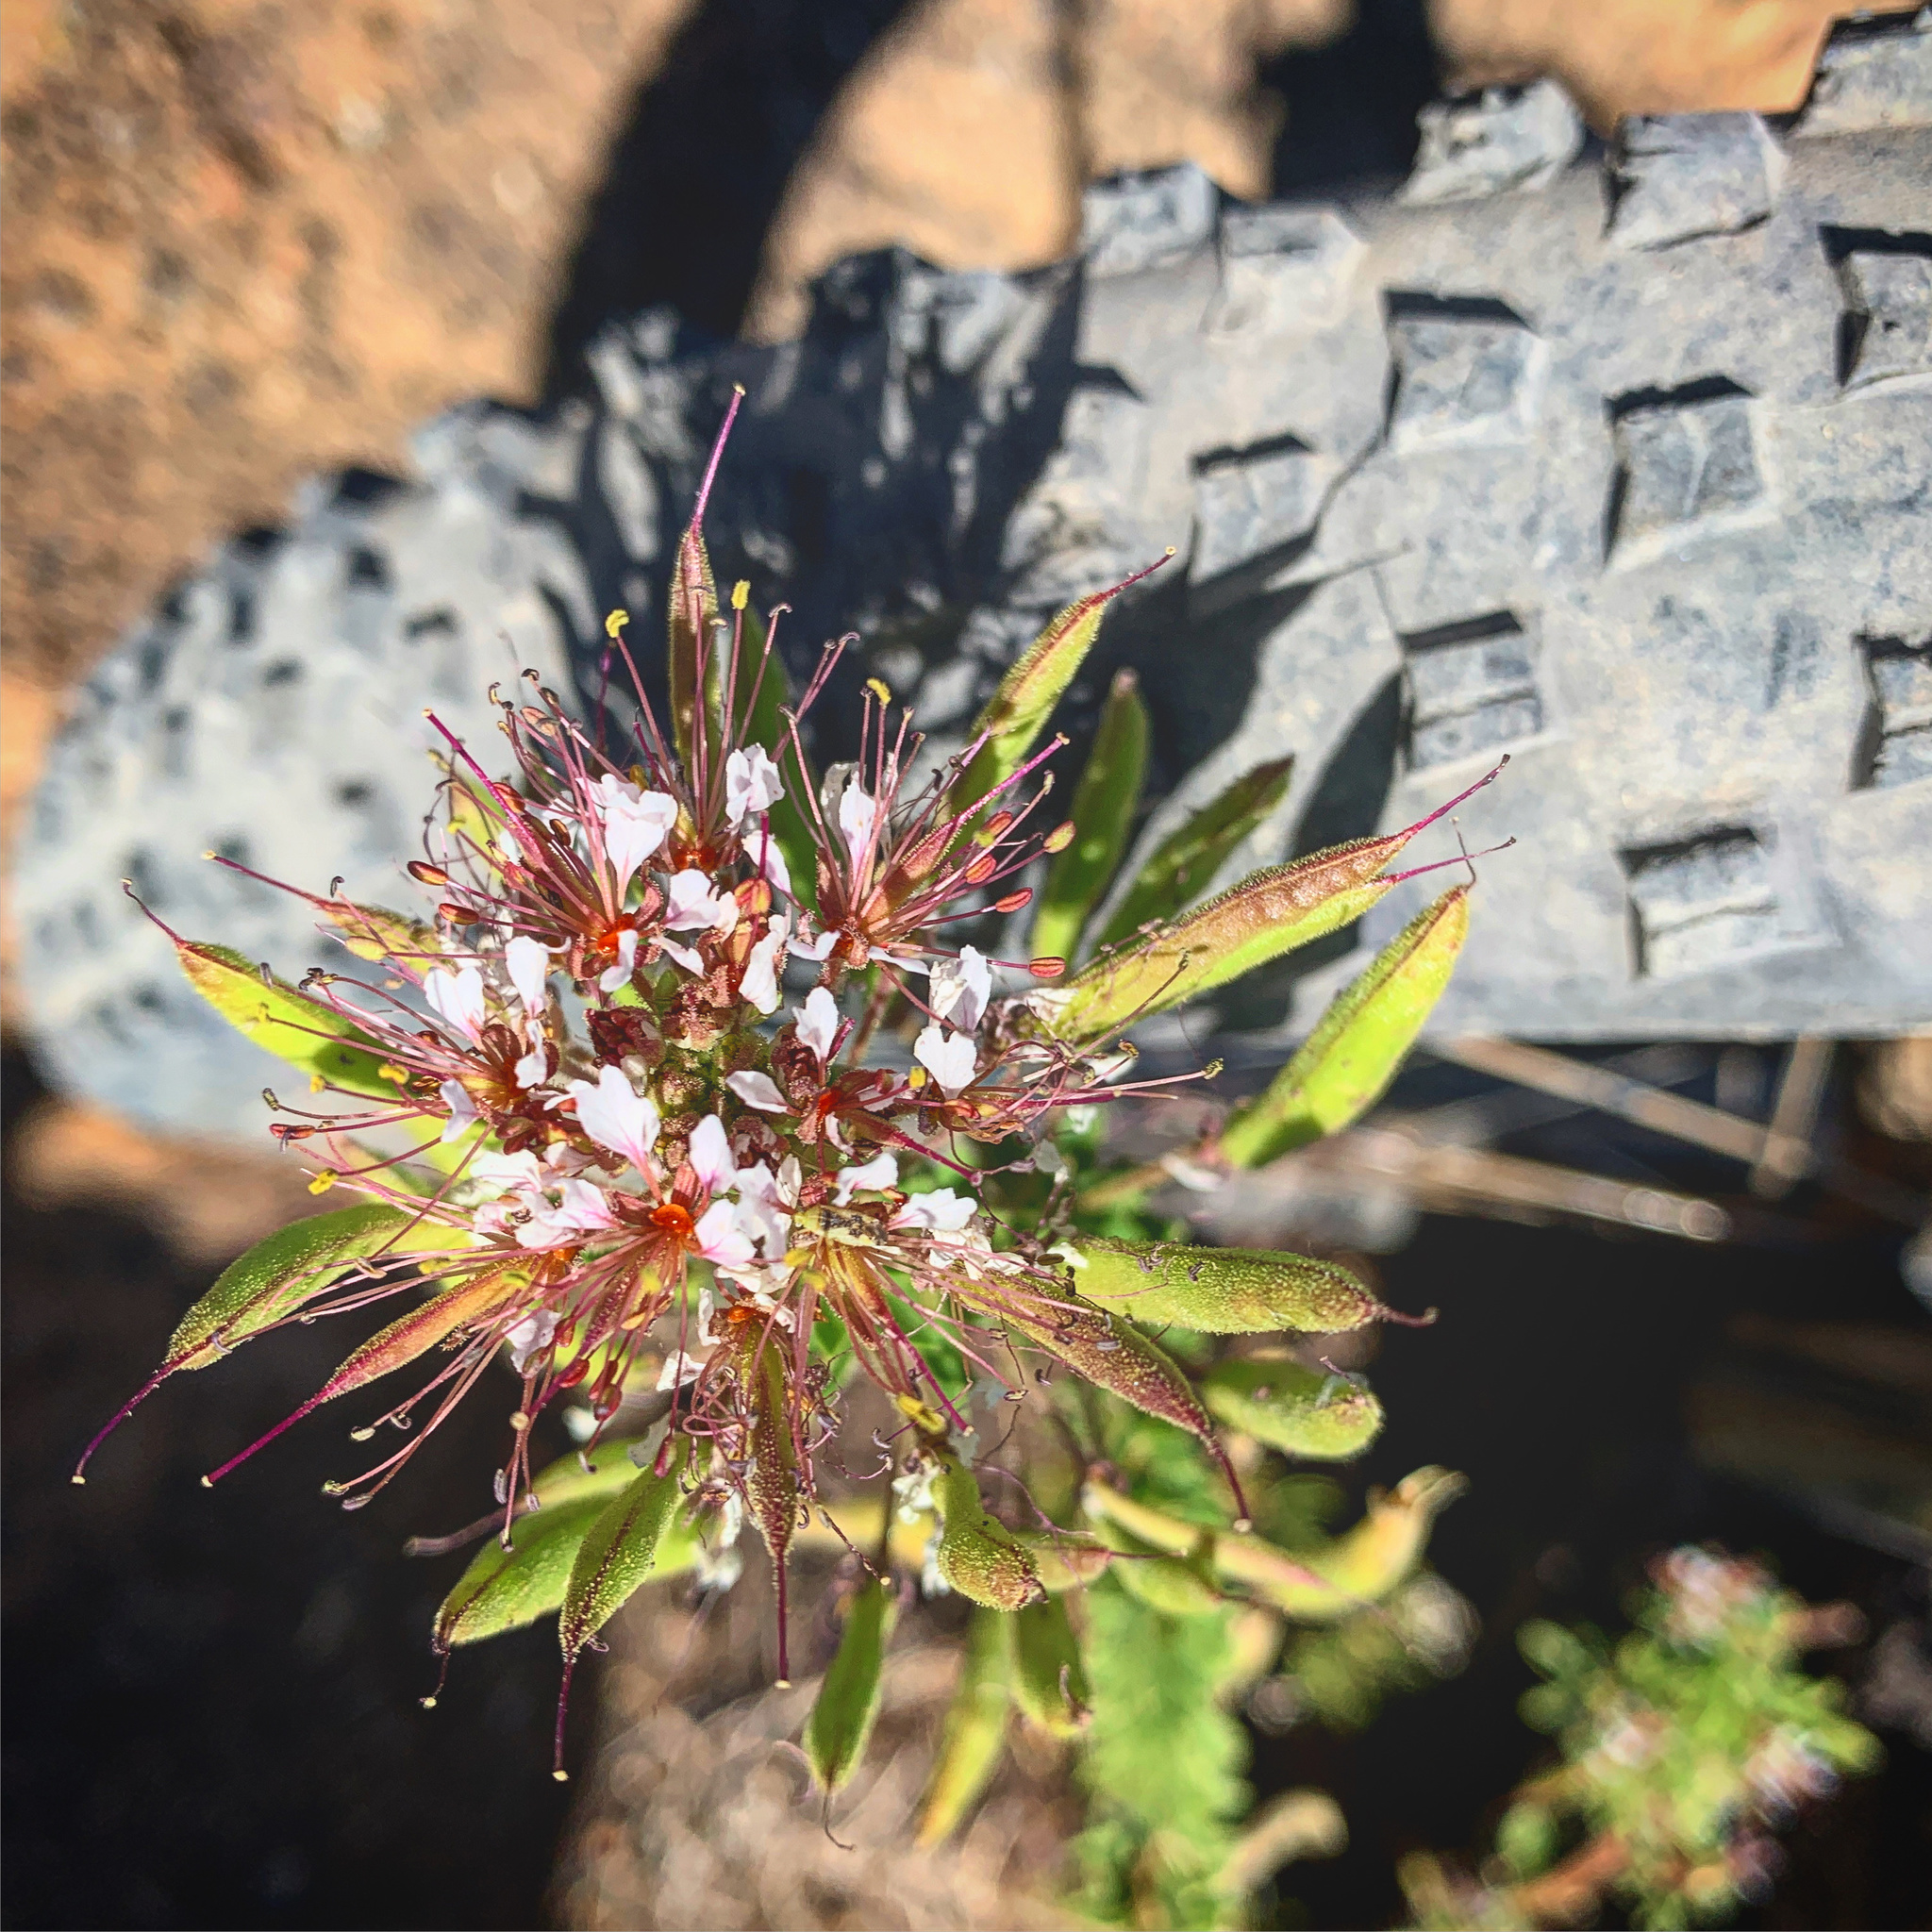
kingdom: Plantae
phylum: Tracheophyta
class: Magnoliopsida
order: Brassicales
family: Cleomaceae
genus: Polanisia
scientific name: Polanisia dodecandra
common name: Clammyweed
